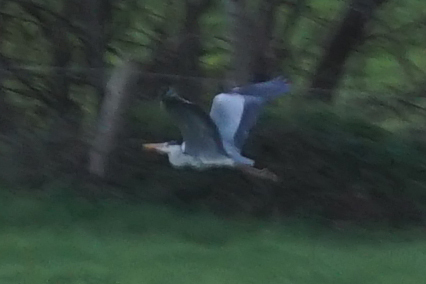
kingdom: Animalia
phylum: Chordata
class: Aves
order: Pelecaniformes
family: Ardeidae
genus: Ardea
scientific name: Ardea cinerea
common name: Grey heron
